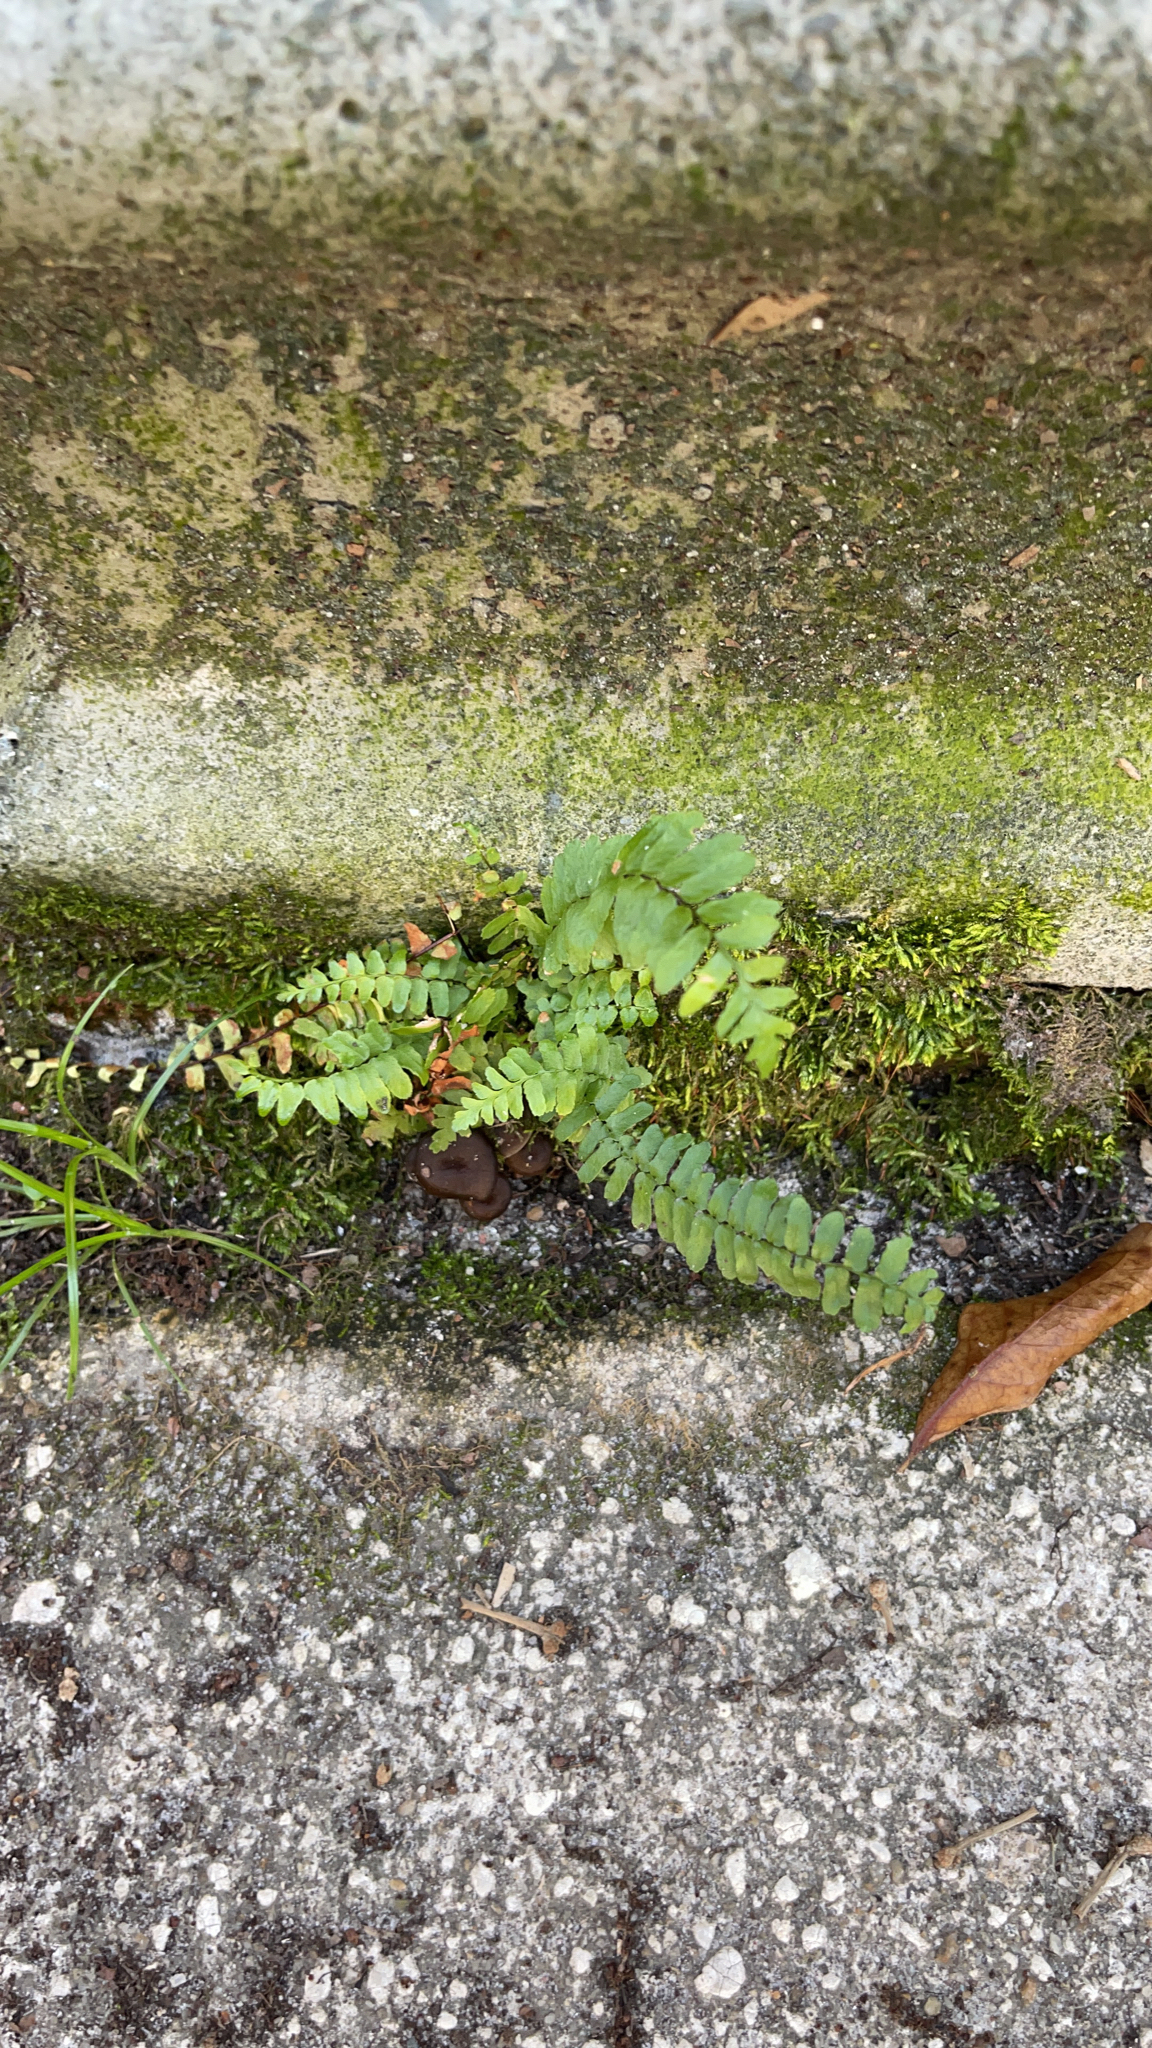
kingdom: Plantae
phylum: Tracheophyta
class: Polypodiopsida
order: Polypodiales
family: Aspleniaceae
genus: Asplenium
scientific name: Asplenium platyneuron
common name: Ebony spleenwort
